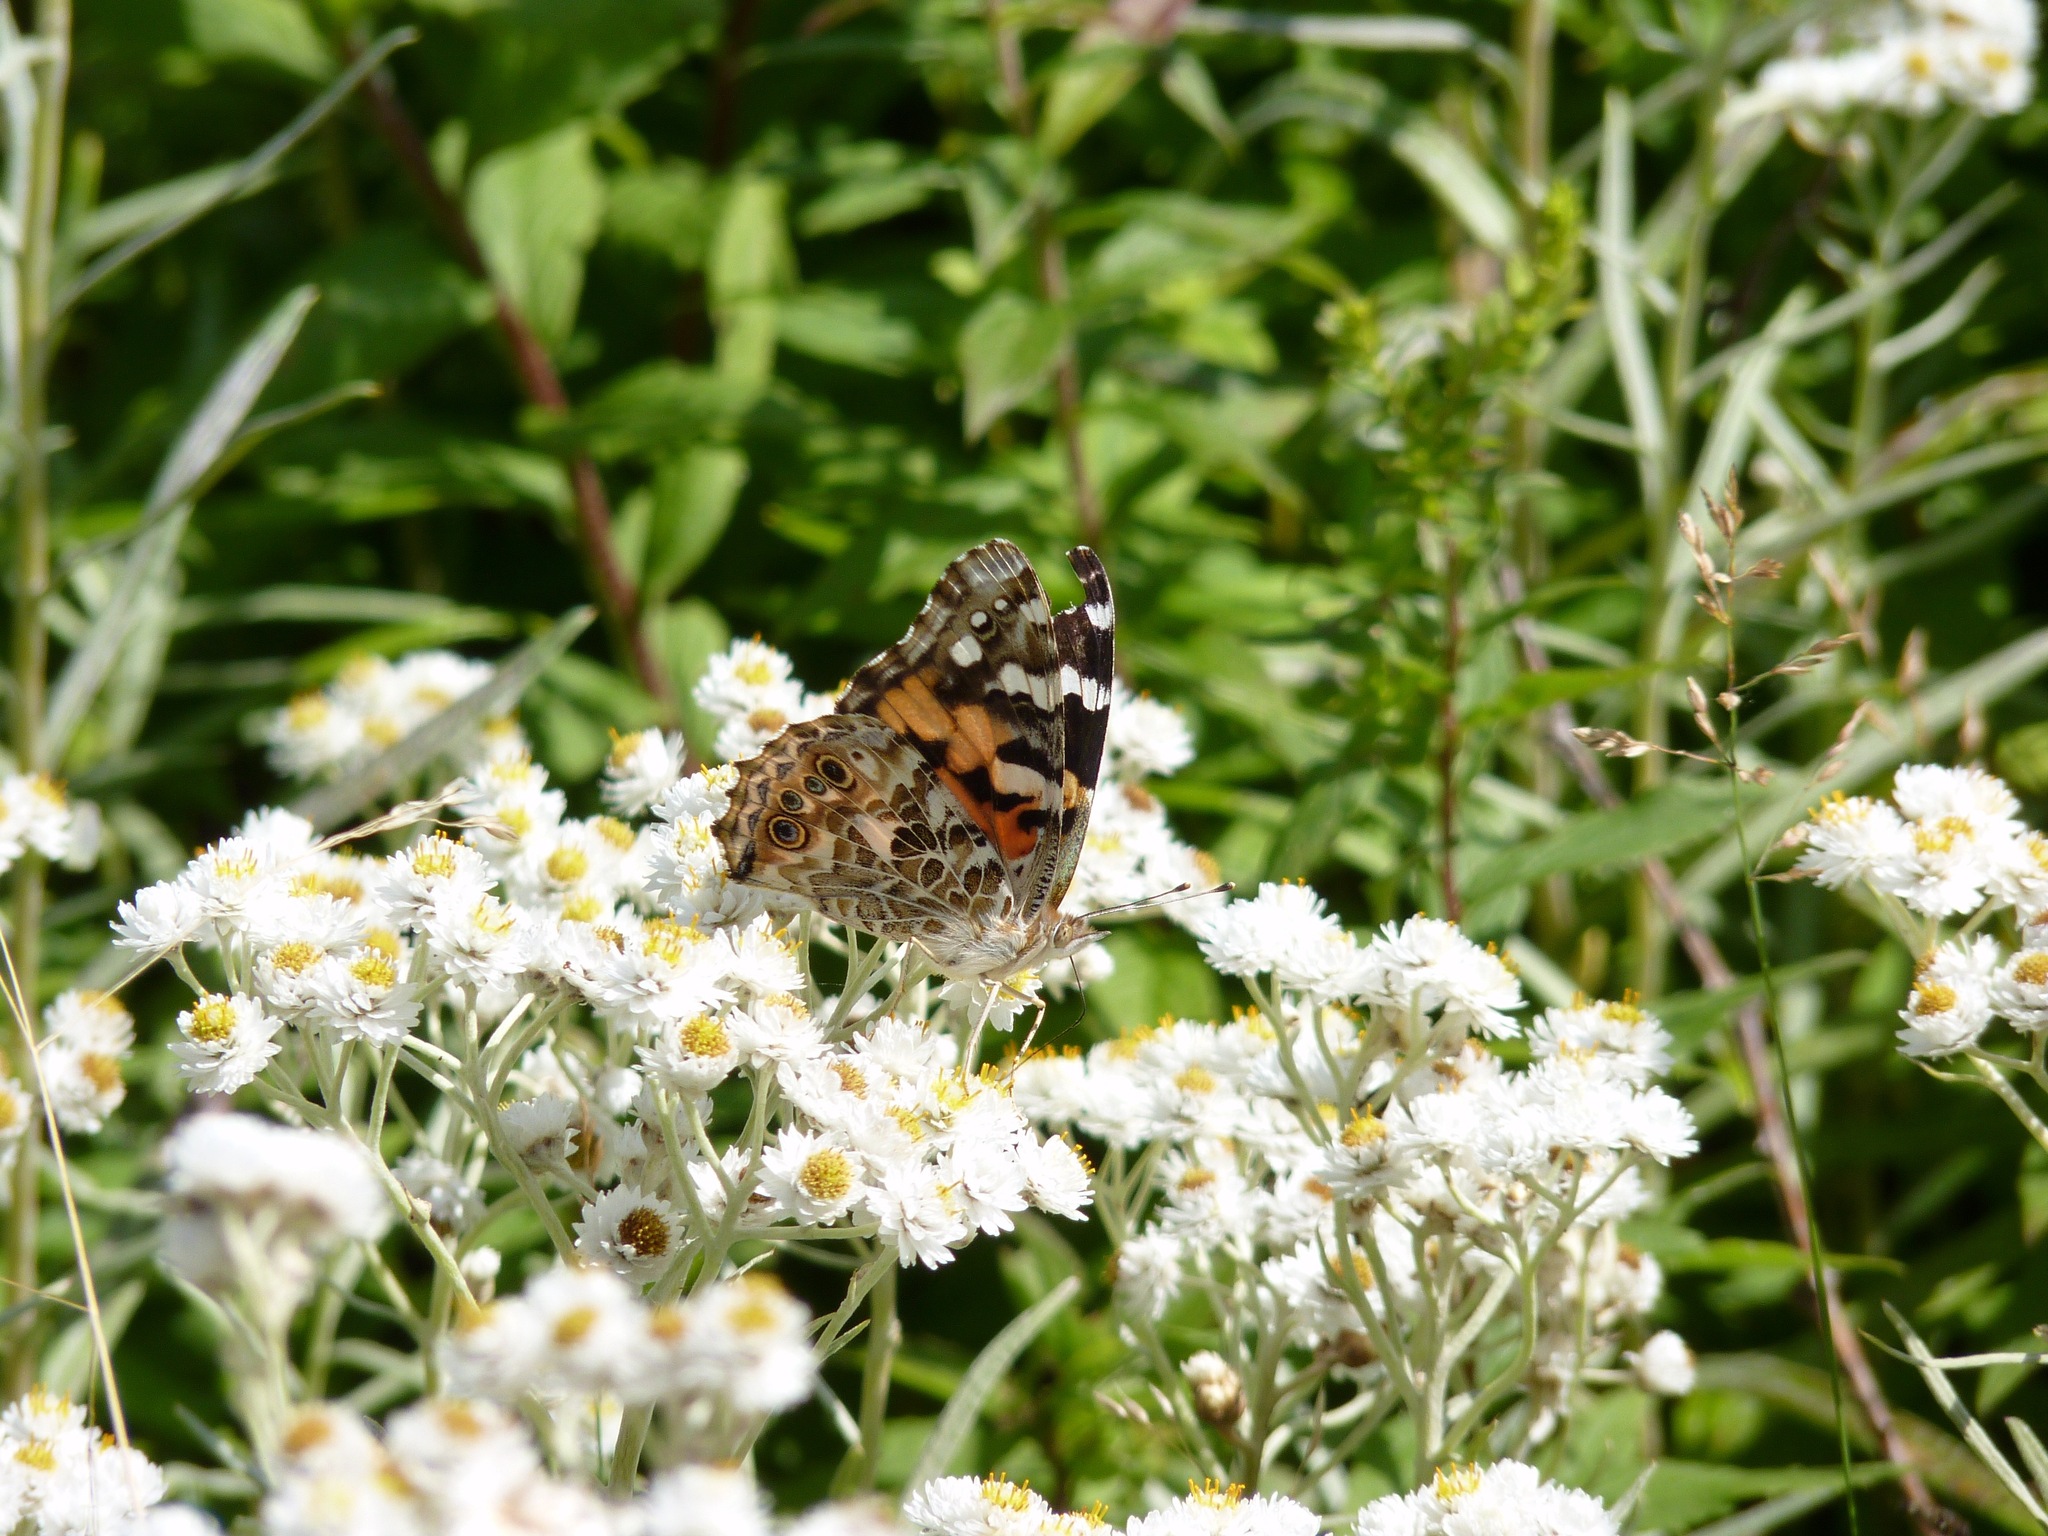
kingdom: Animalia
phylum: Arthropoda
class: Insecta
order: Lepidoptera
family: Nymphalidae
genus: Vanessa
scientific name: Vanessa cardui
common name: Painted lady
